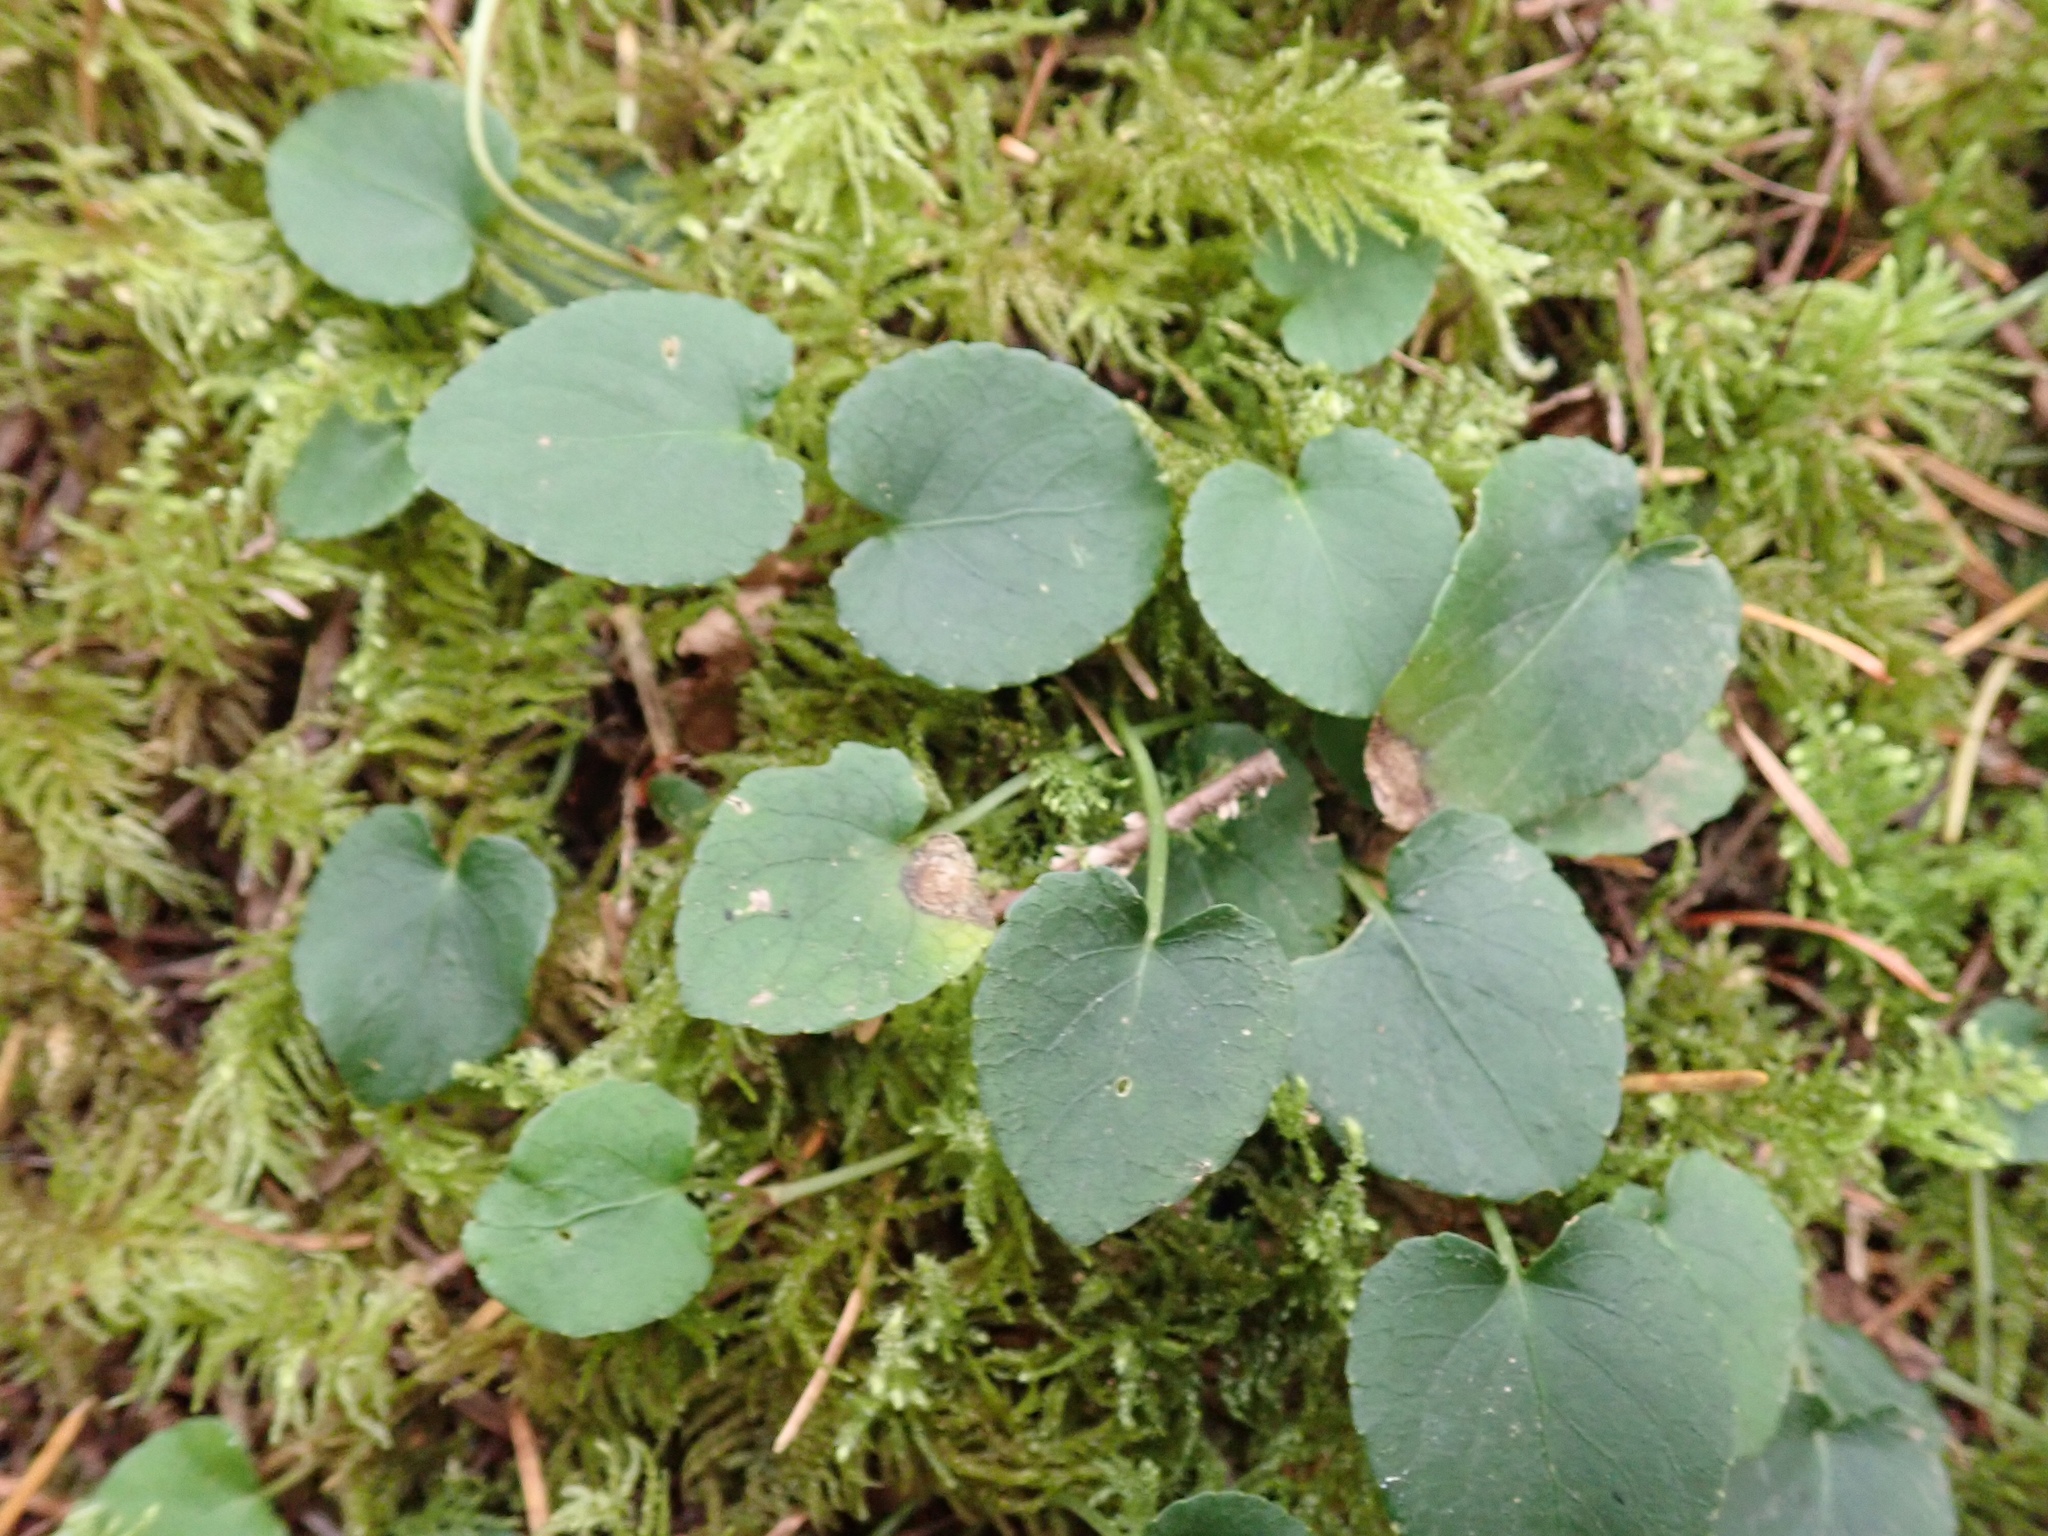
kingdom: Plantae
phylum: Tracheophyta
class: Magnoliopsida
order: Malpighiales
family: Violaceae
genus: Viola
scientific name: Viola sempervirens
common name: Evergreen violet
